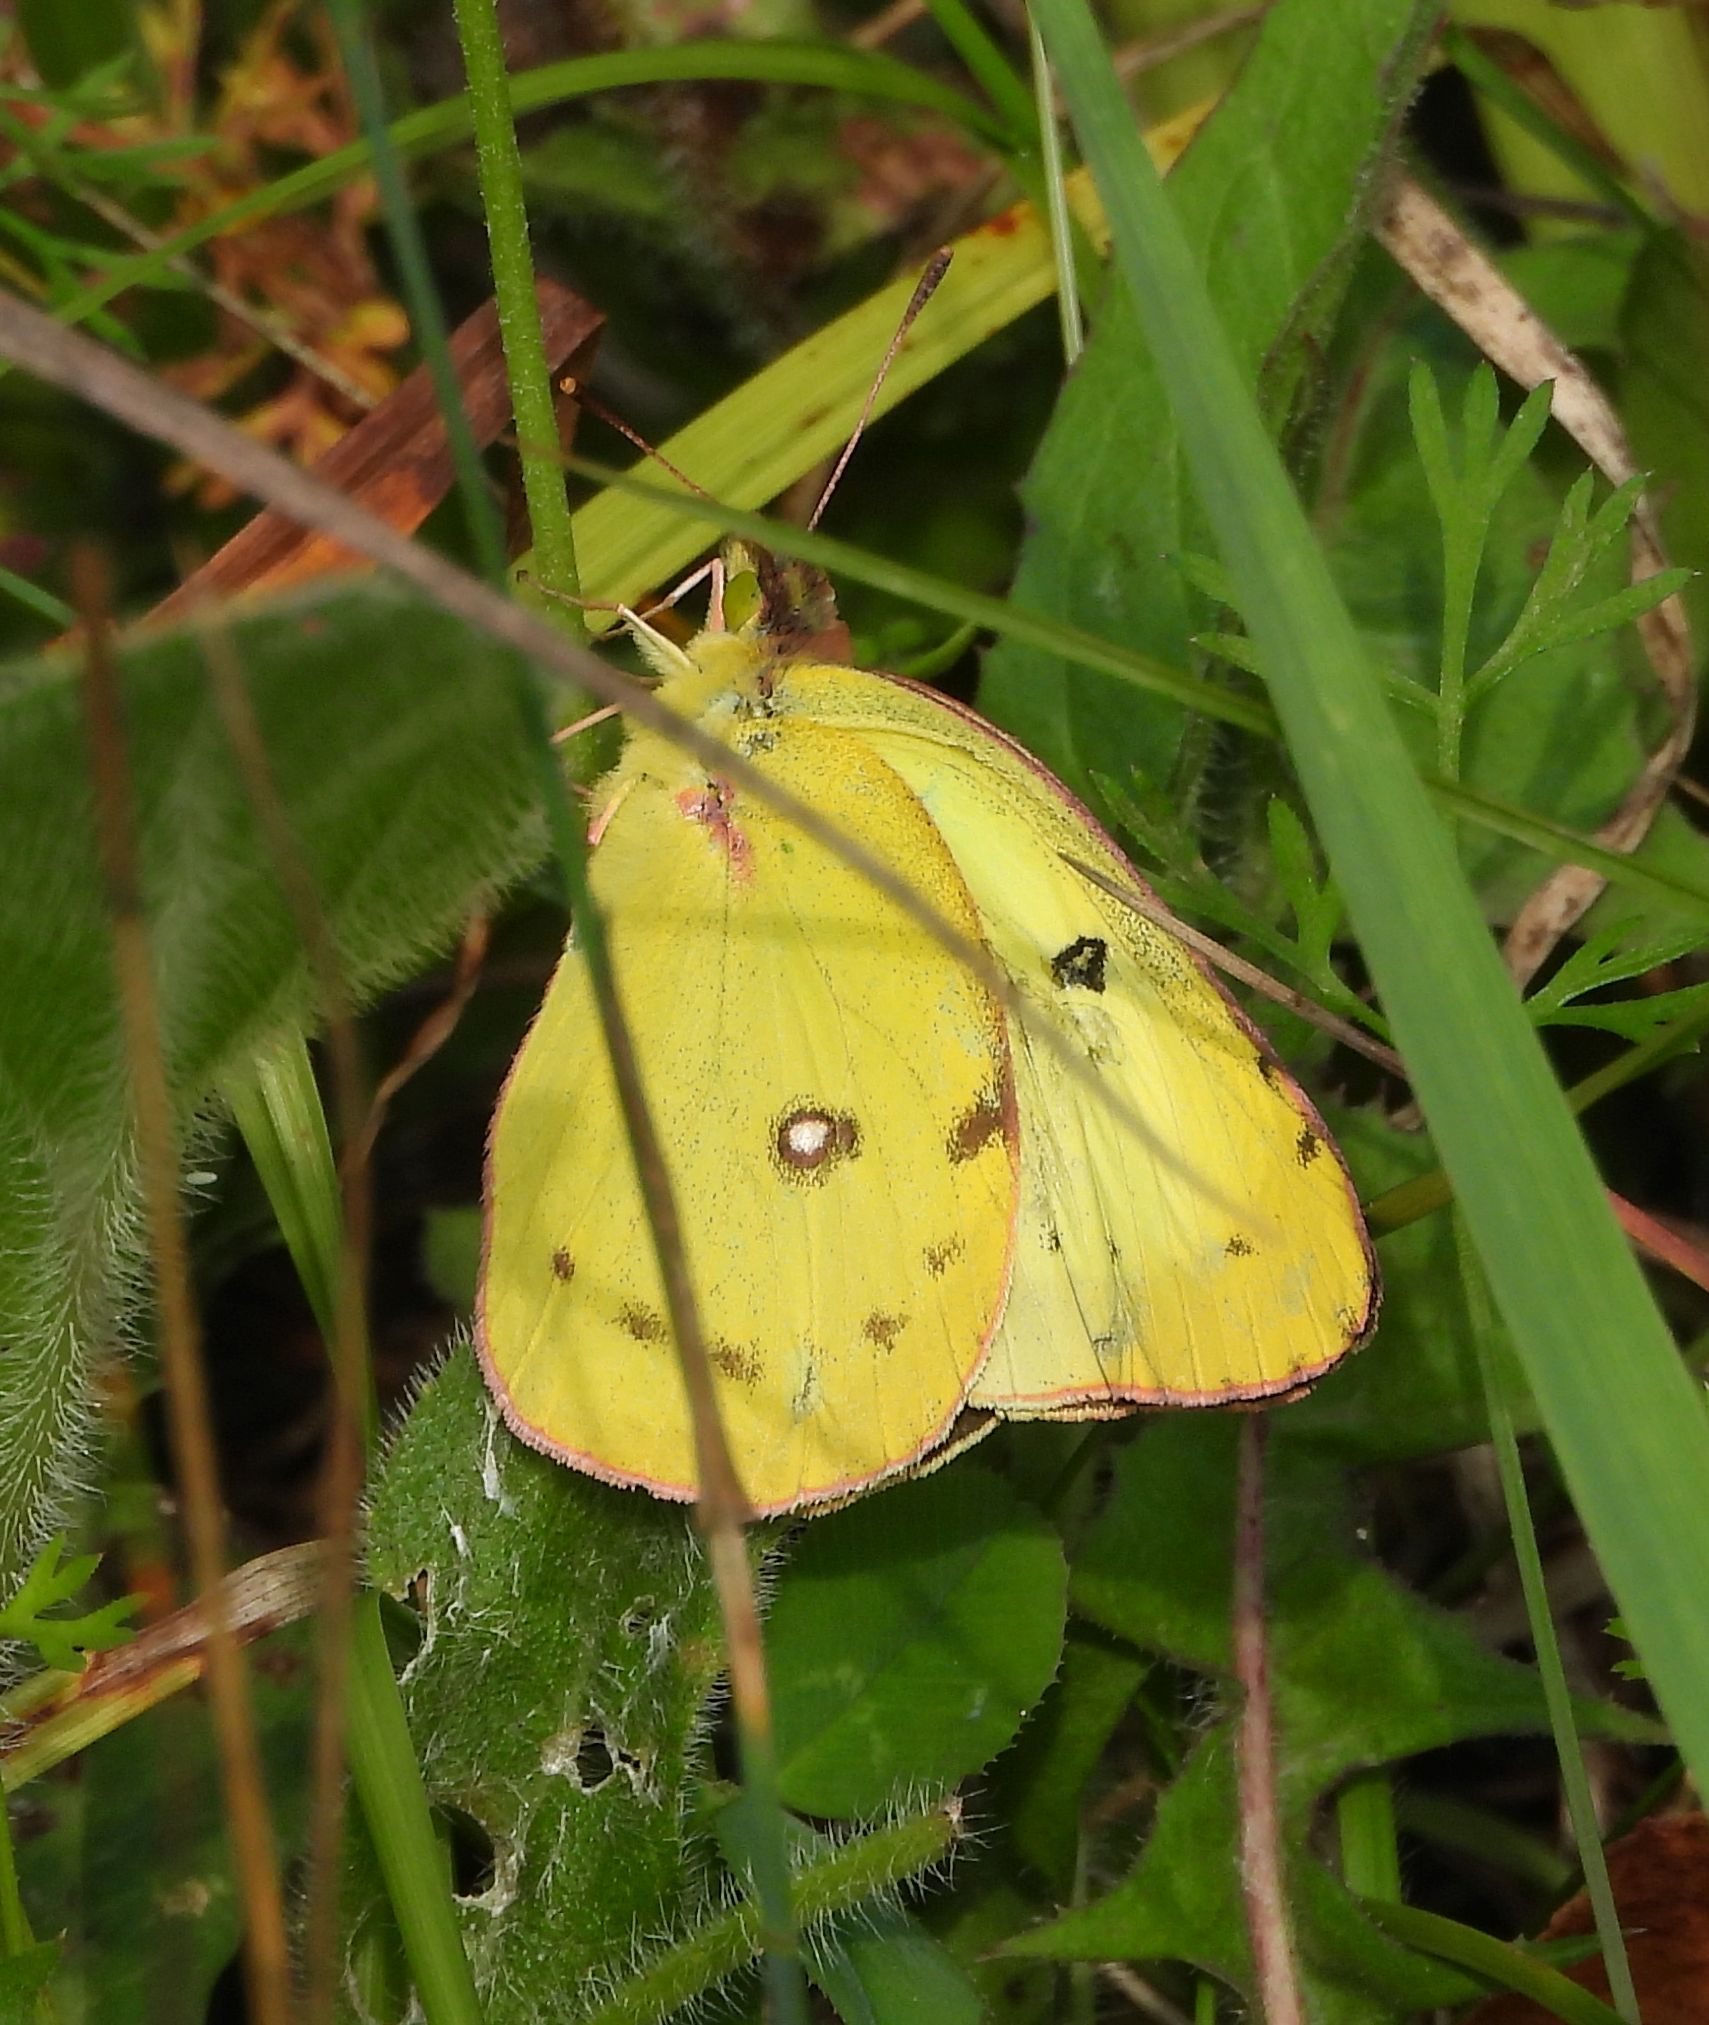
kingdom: Animalia
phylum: Arthropoda
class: Insecta
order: Lepidoptera
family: Pieridae
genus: Colias
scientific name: Colias philodice
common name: Clouded sulphur
